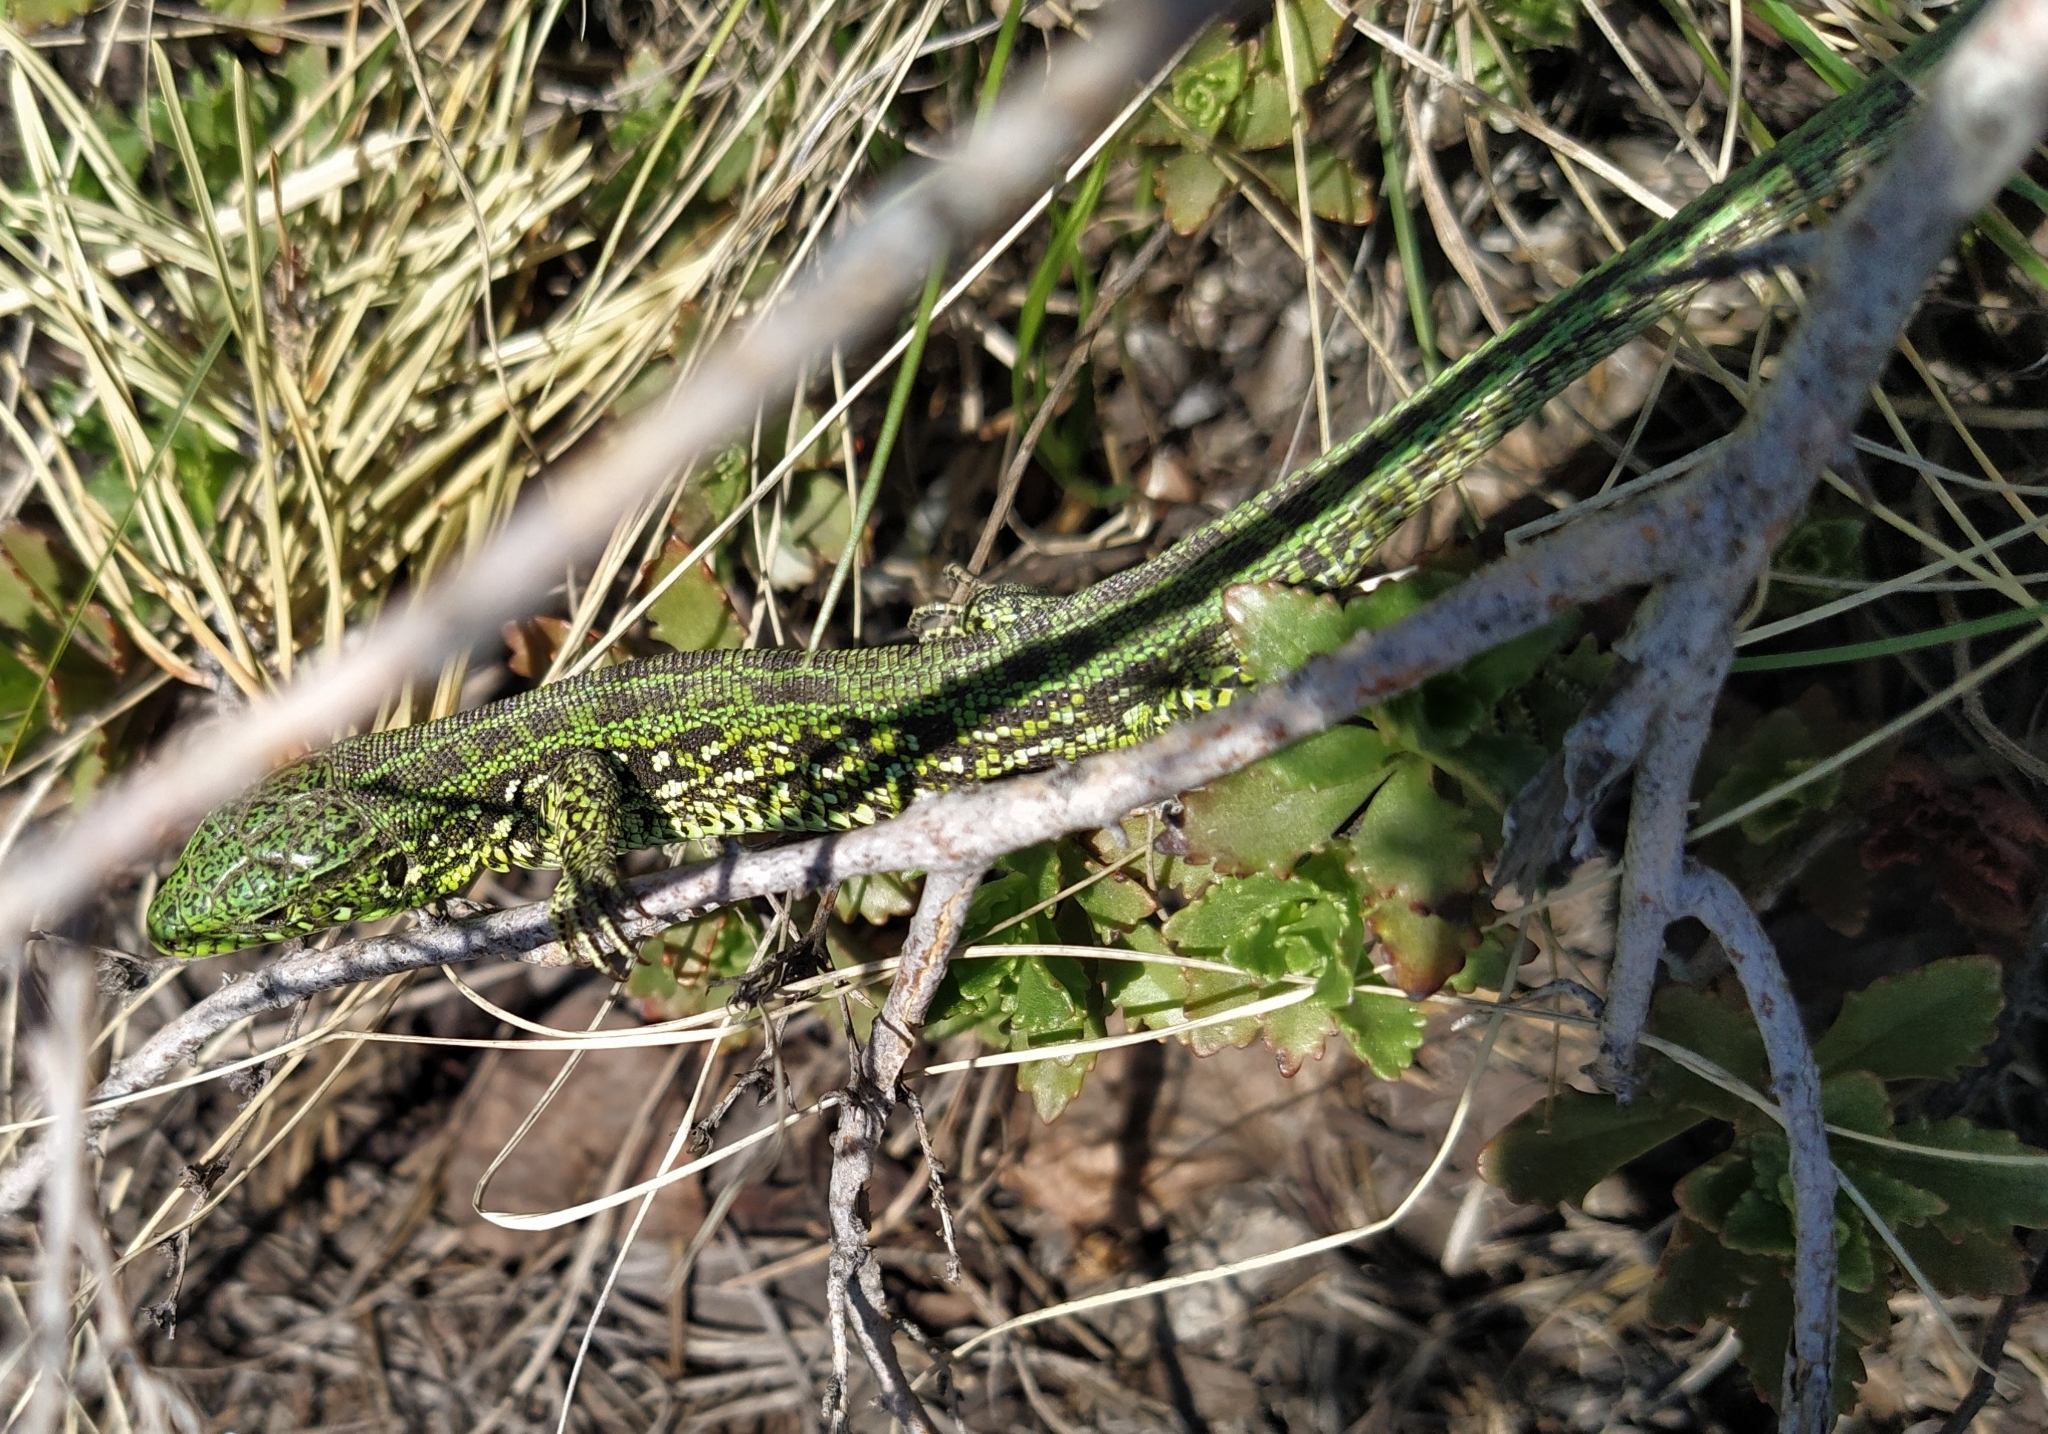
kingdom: Animalia
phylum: Chordata
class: Squamata
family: Lacertidae
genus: Lacerta
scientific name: Lacerta agilis
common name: Sand lizard
